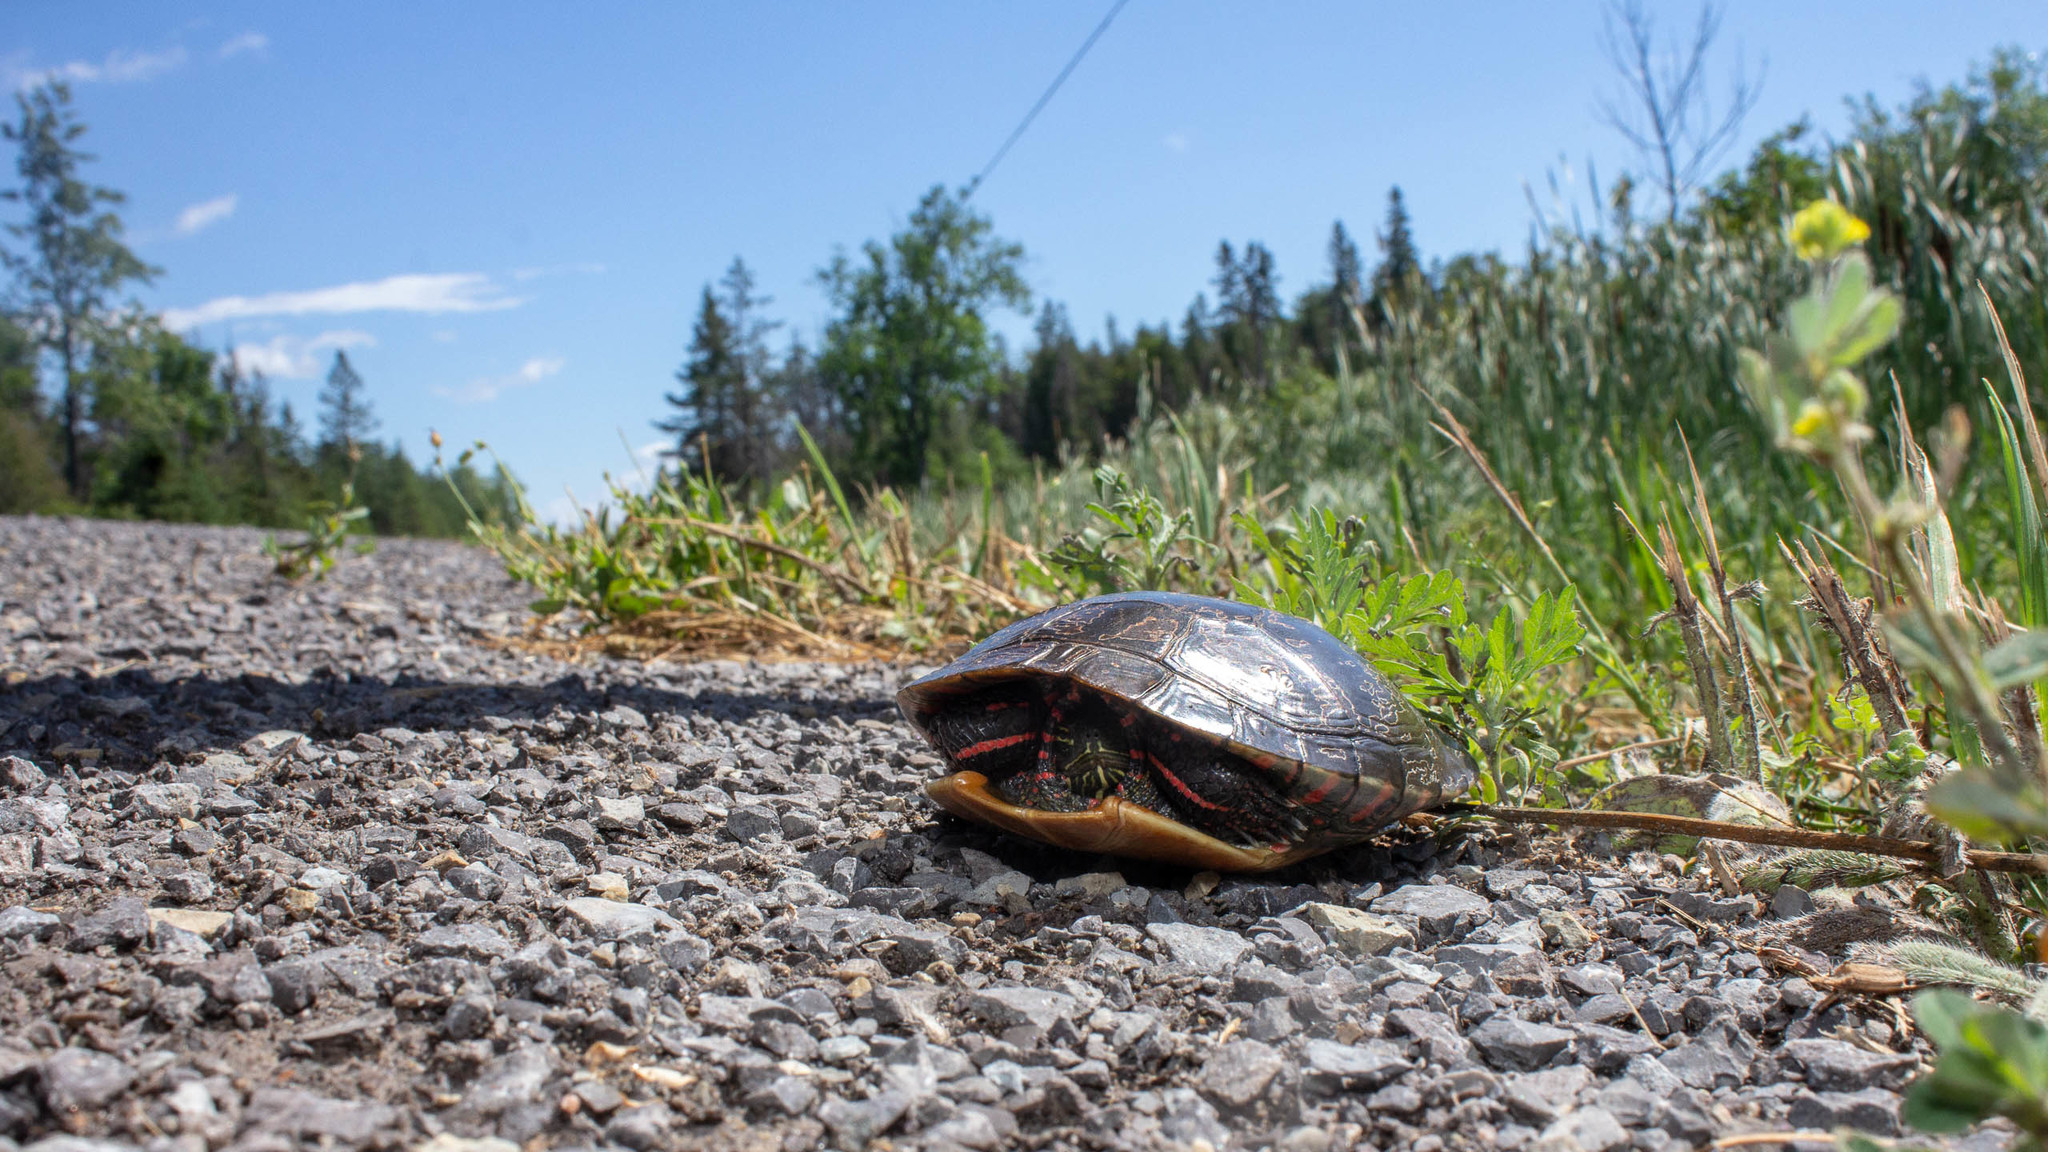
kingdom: Animalia
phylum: Chordata
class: Testudines
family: Emydidae
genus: Chrysemys
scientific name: Chrysemys picta
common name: Painted turtle
